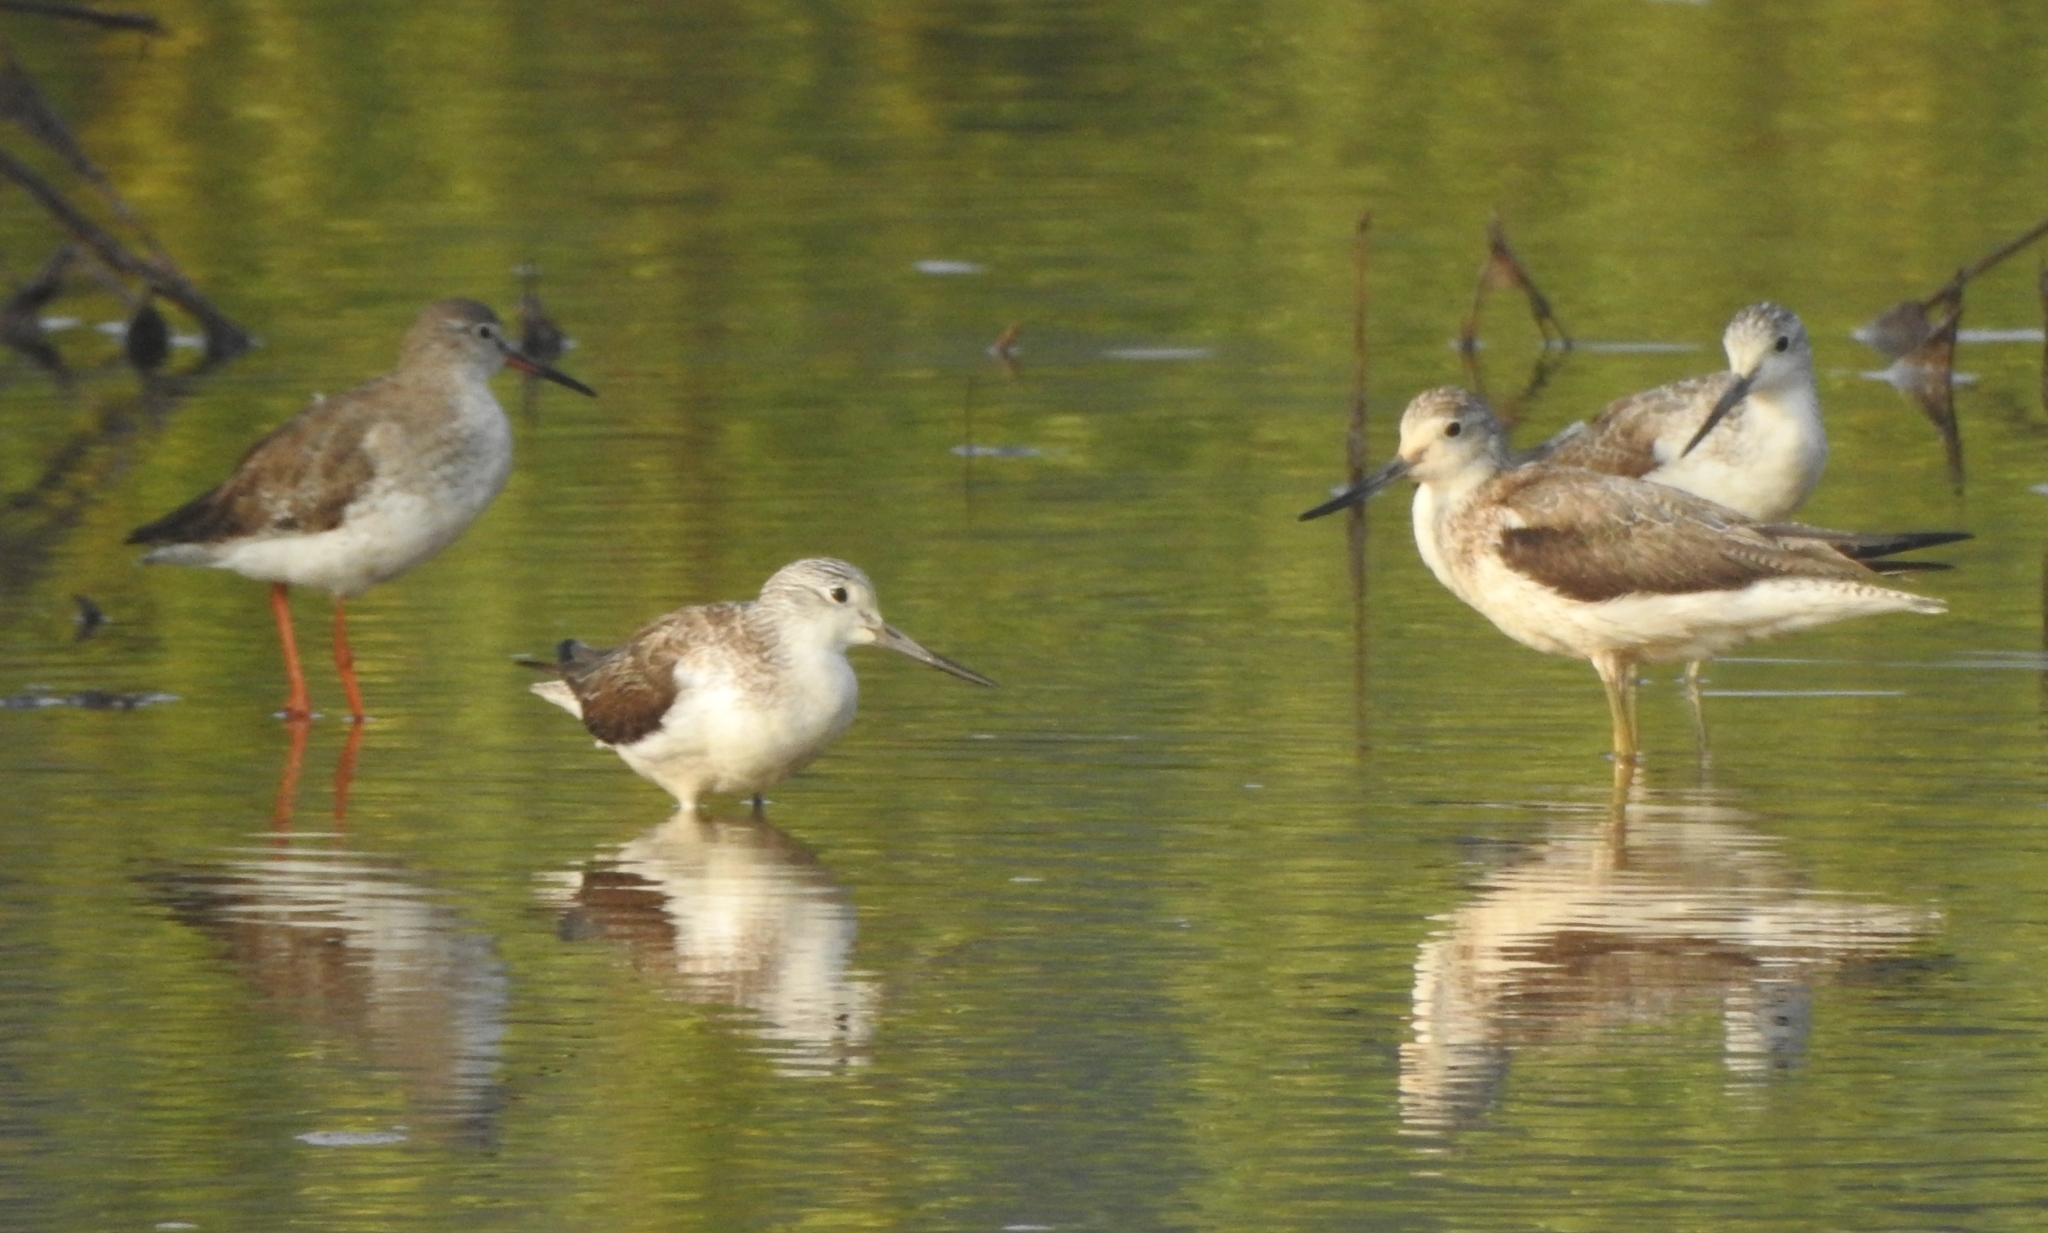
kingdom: Animalia
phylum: Chordata
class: Aves
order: Charadriiformes
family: Scolopacidae
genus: Tringa
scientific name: Tringa totanus
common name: Common redshank
